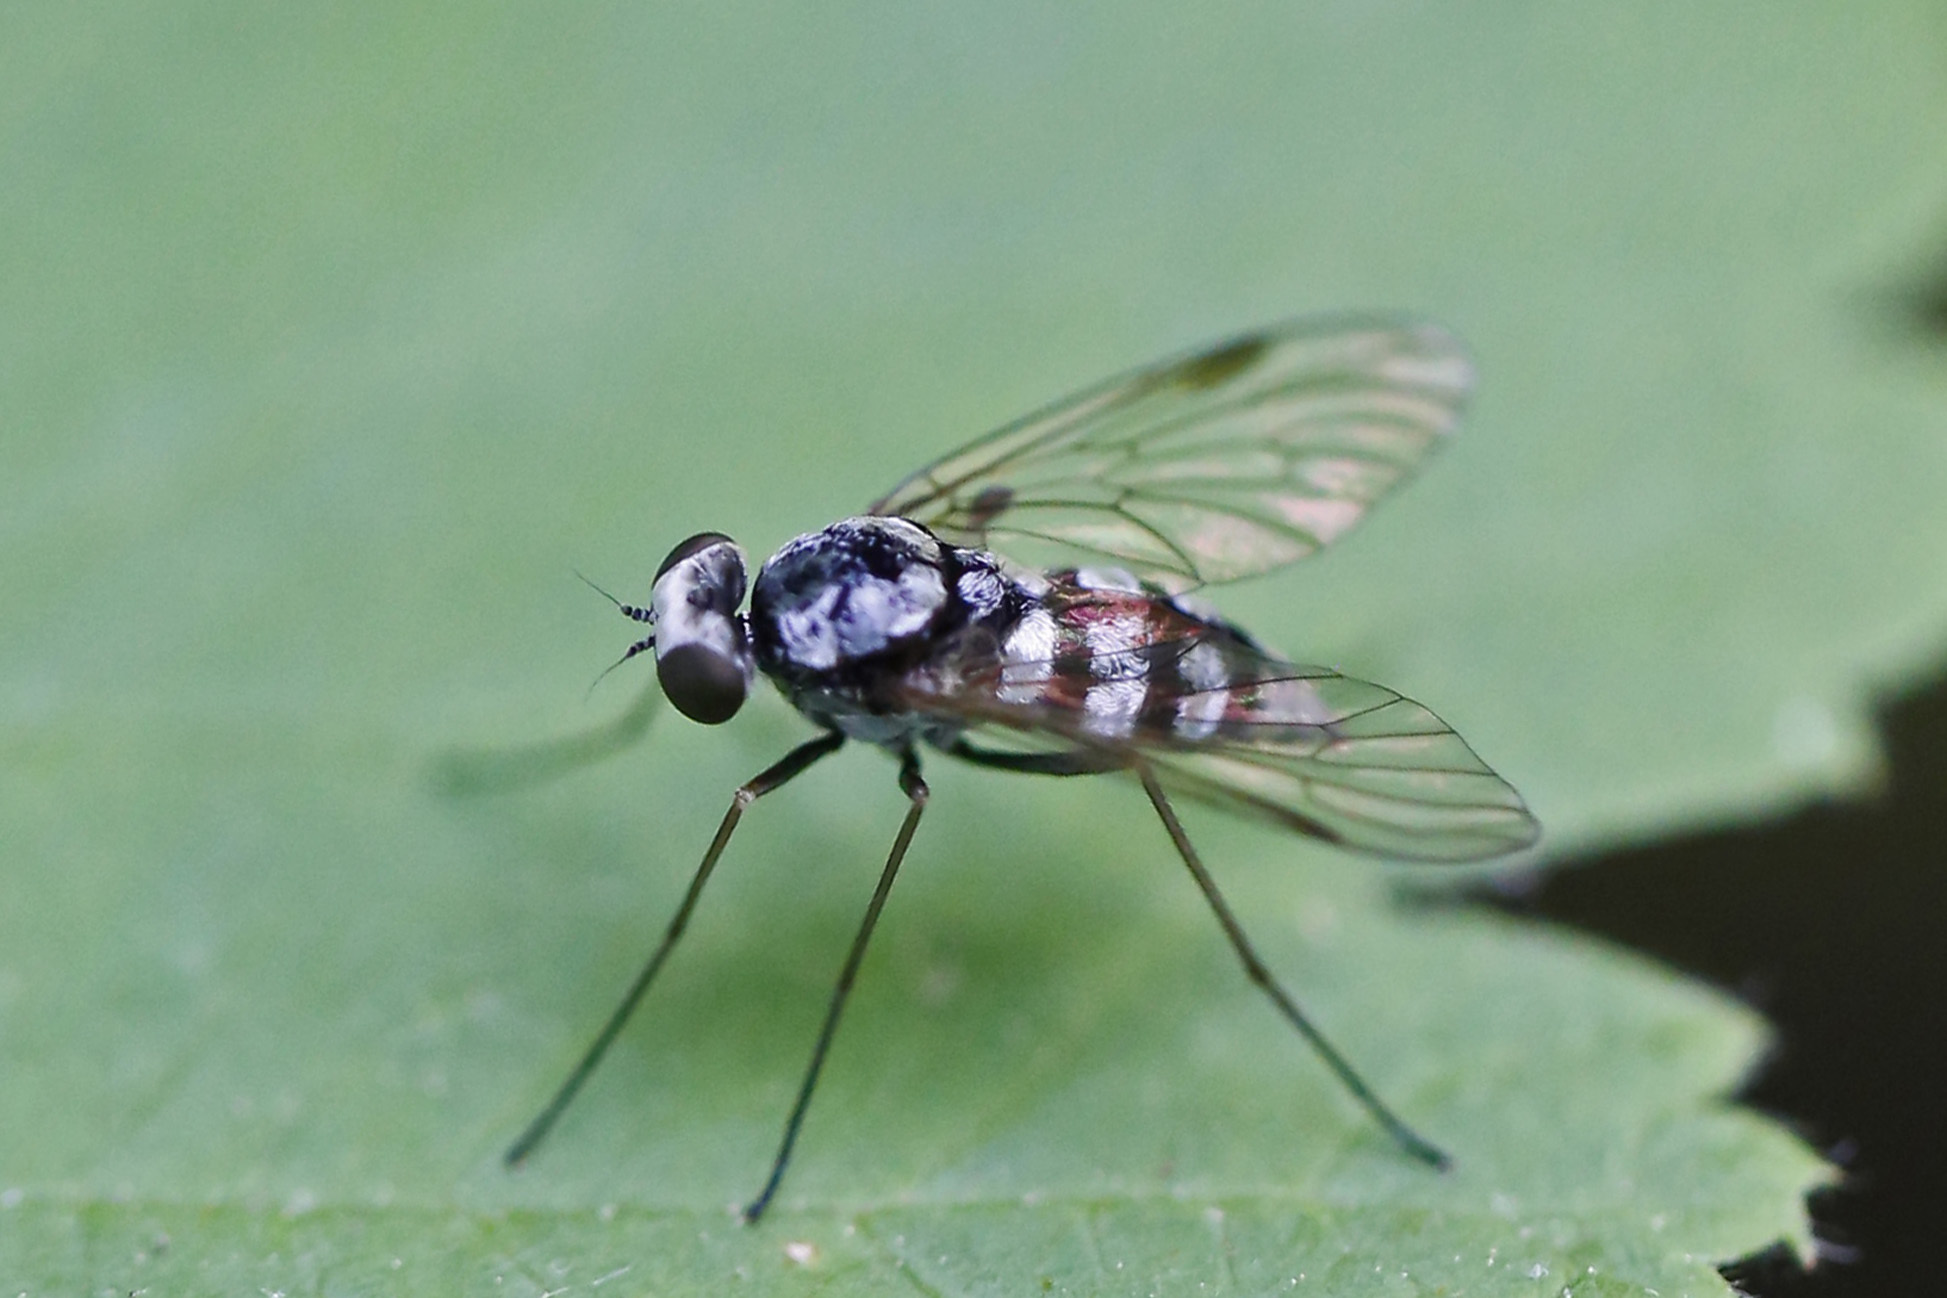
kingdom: Animalia
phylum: Arthropoda
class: Insecta
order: Diptera
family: Rhagionidae
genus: Chrysopilus
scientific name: Chrysopilus fasciatus
